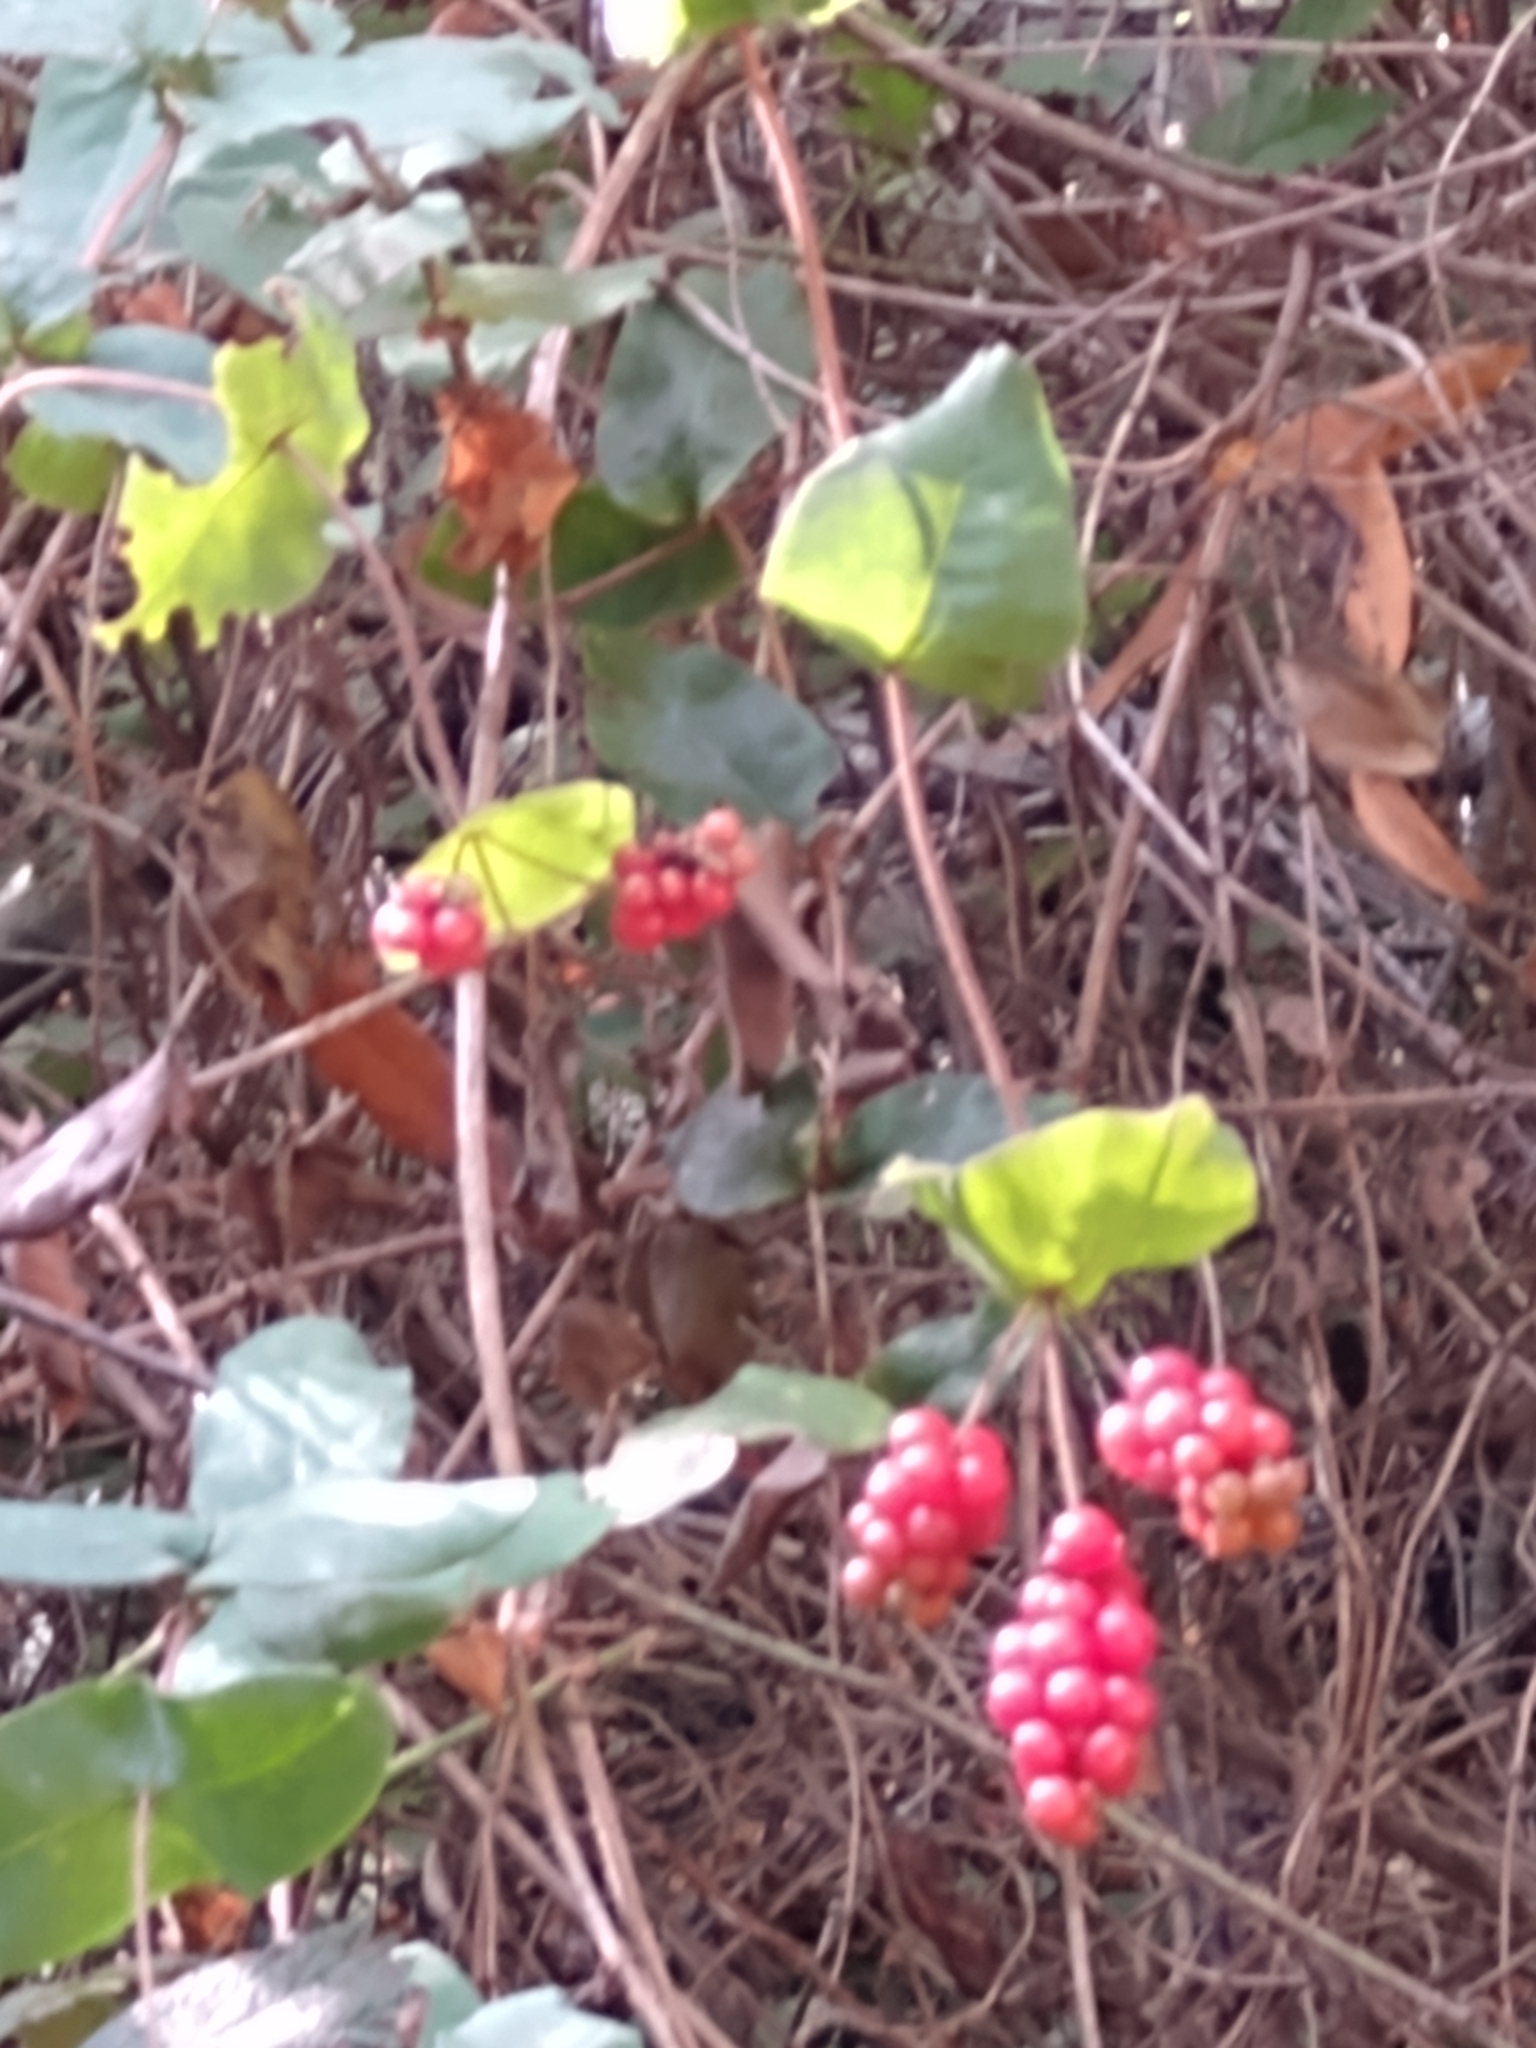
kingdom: Plantae
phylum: Tracheophyta
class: Magnoliopsida
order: Dipsacales
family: Caprifoliaceae
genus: Lonicera
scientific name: Lonicera hispidula
